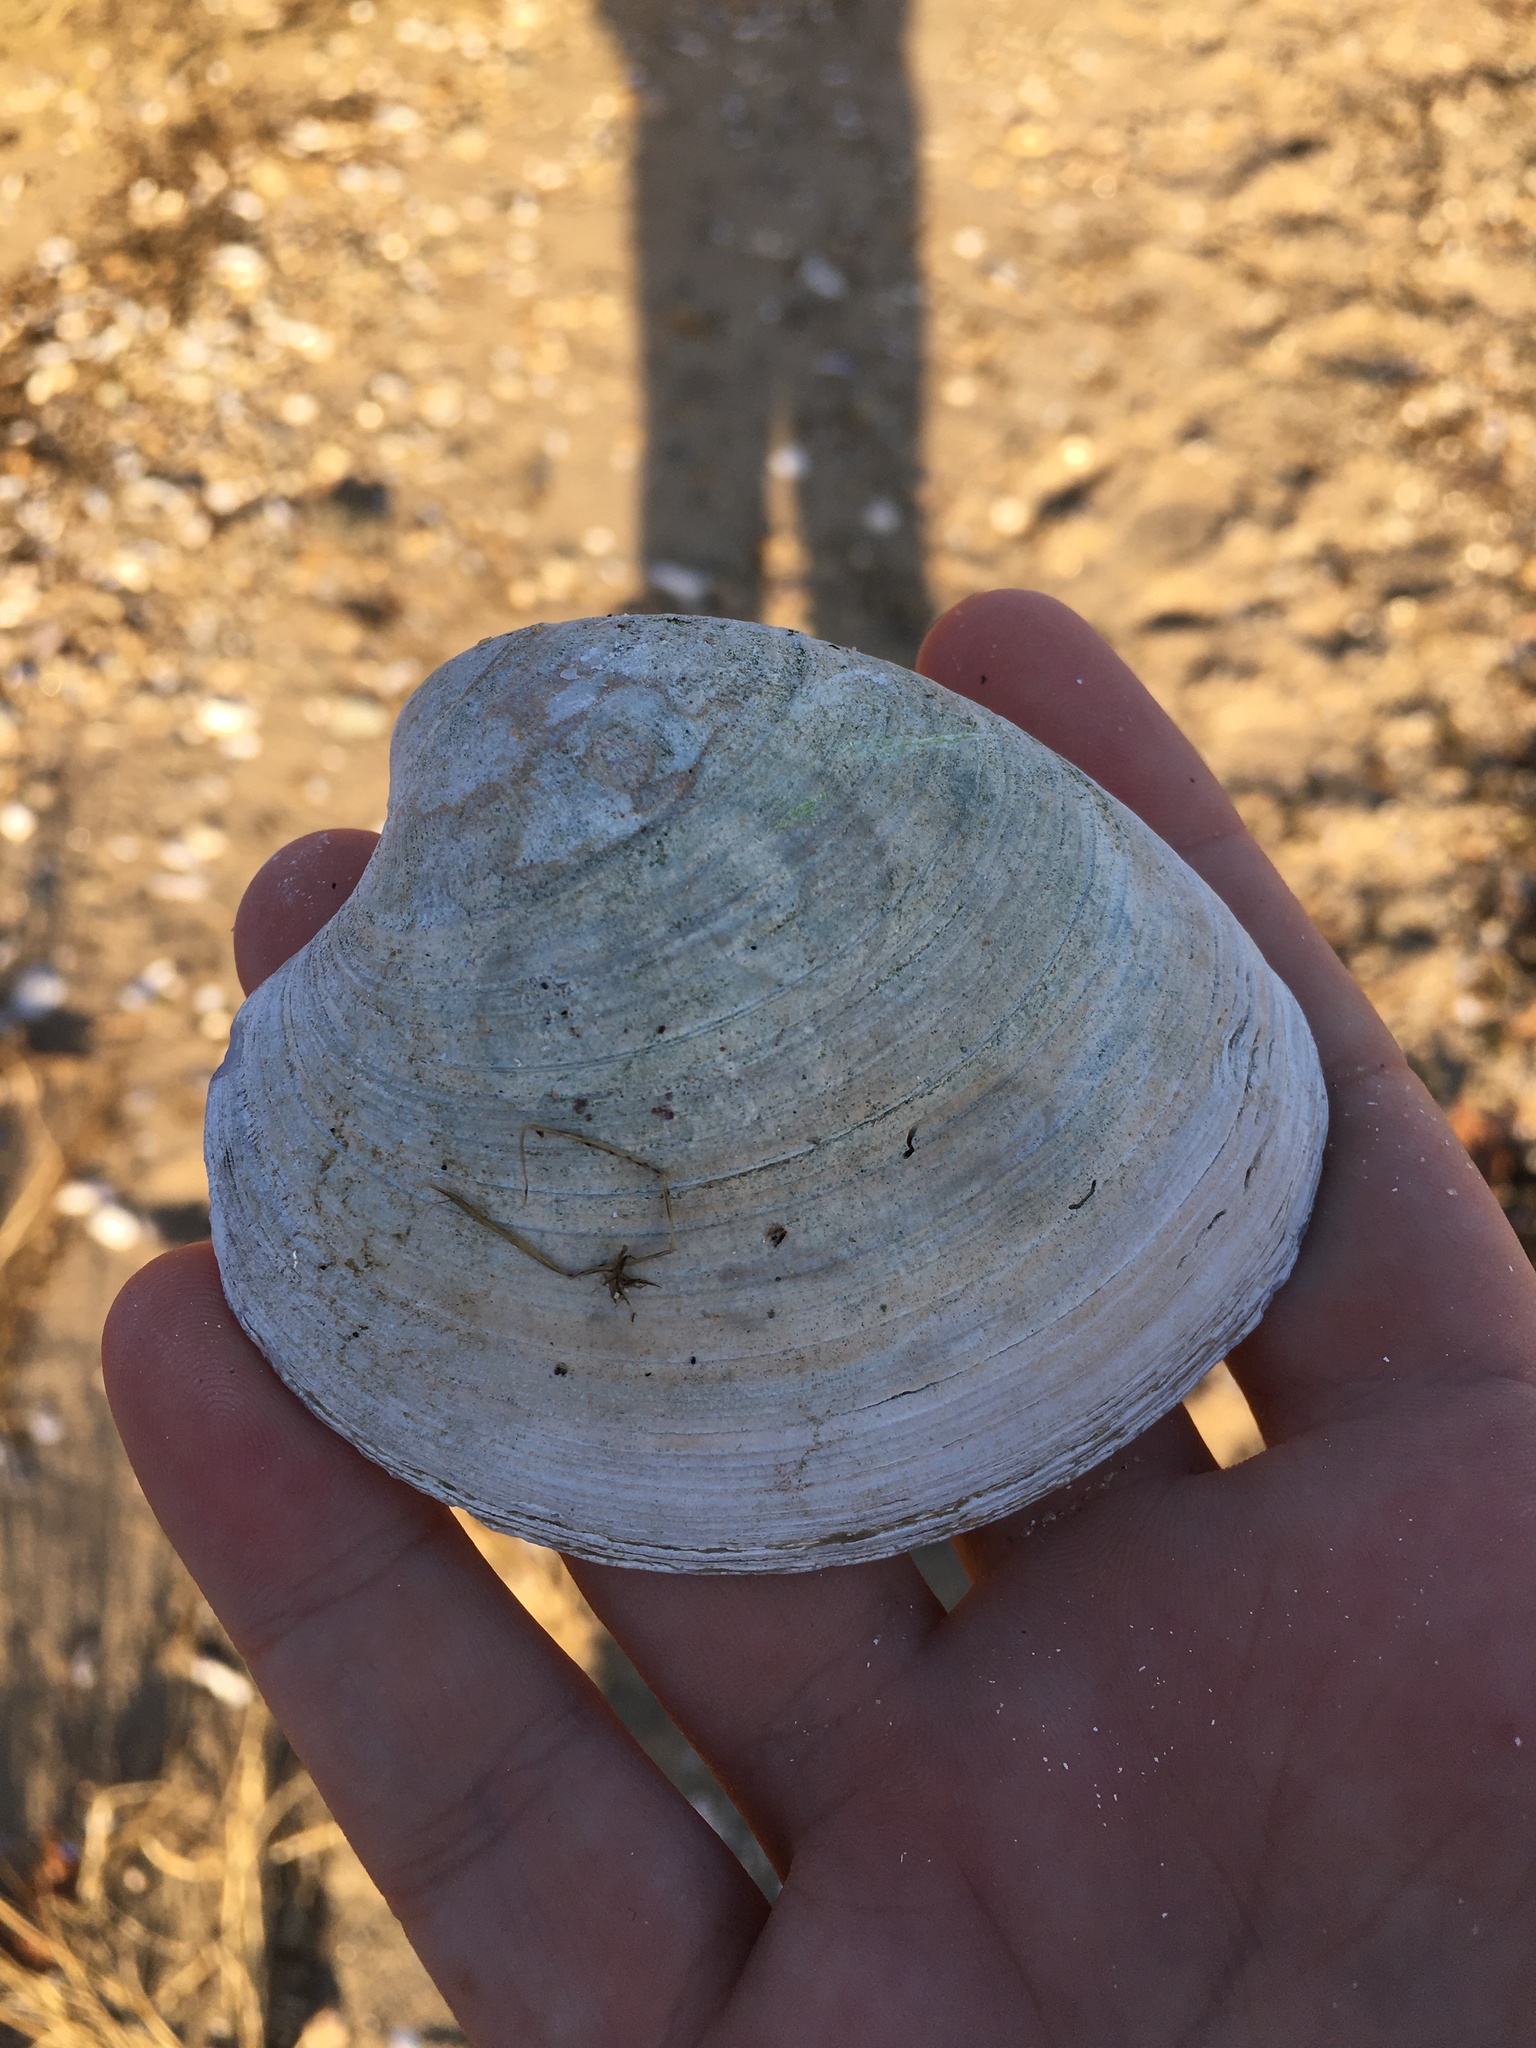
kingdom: Animalia
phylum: Mollusca
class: Bivalvia
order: Venerida
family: Veneridae
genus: Mercenaria
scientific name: Mercenaria mercenaria
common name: American hard-shelled clam
